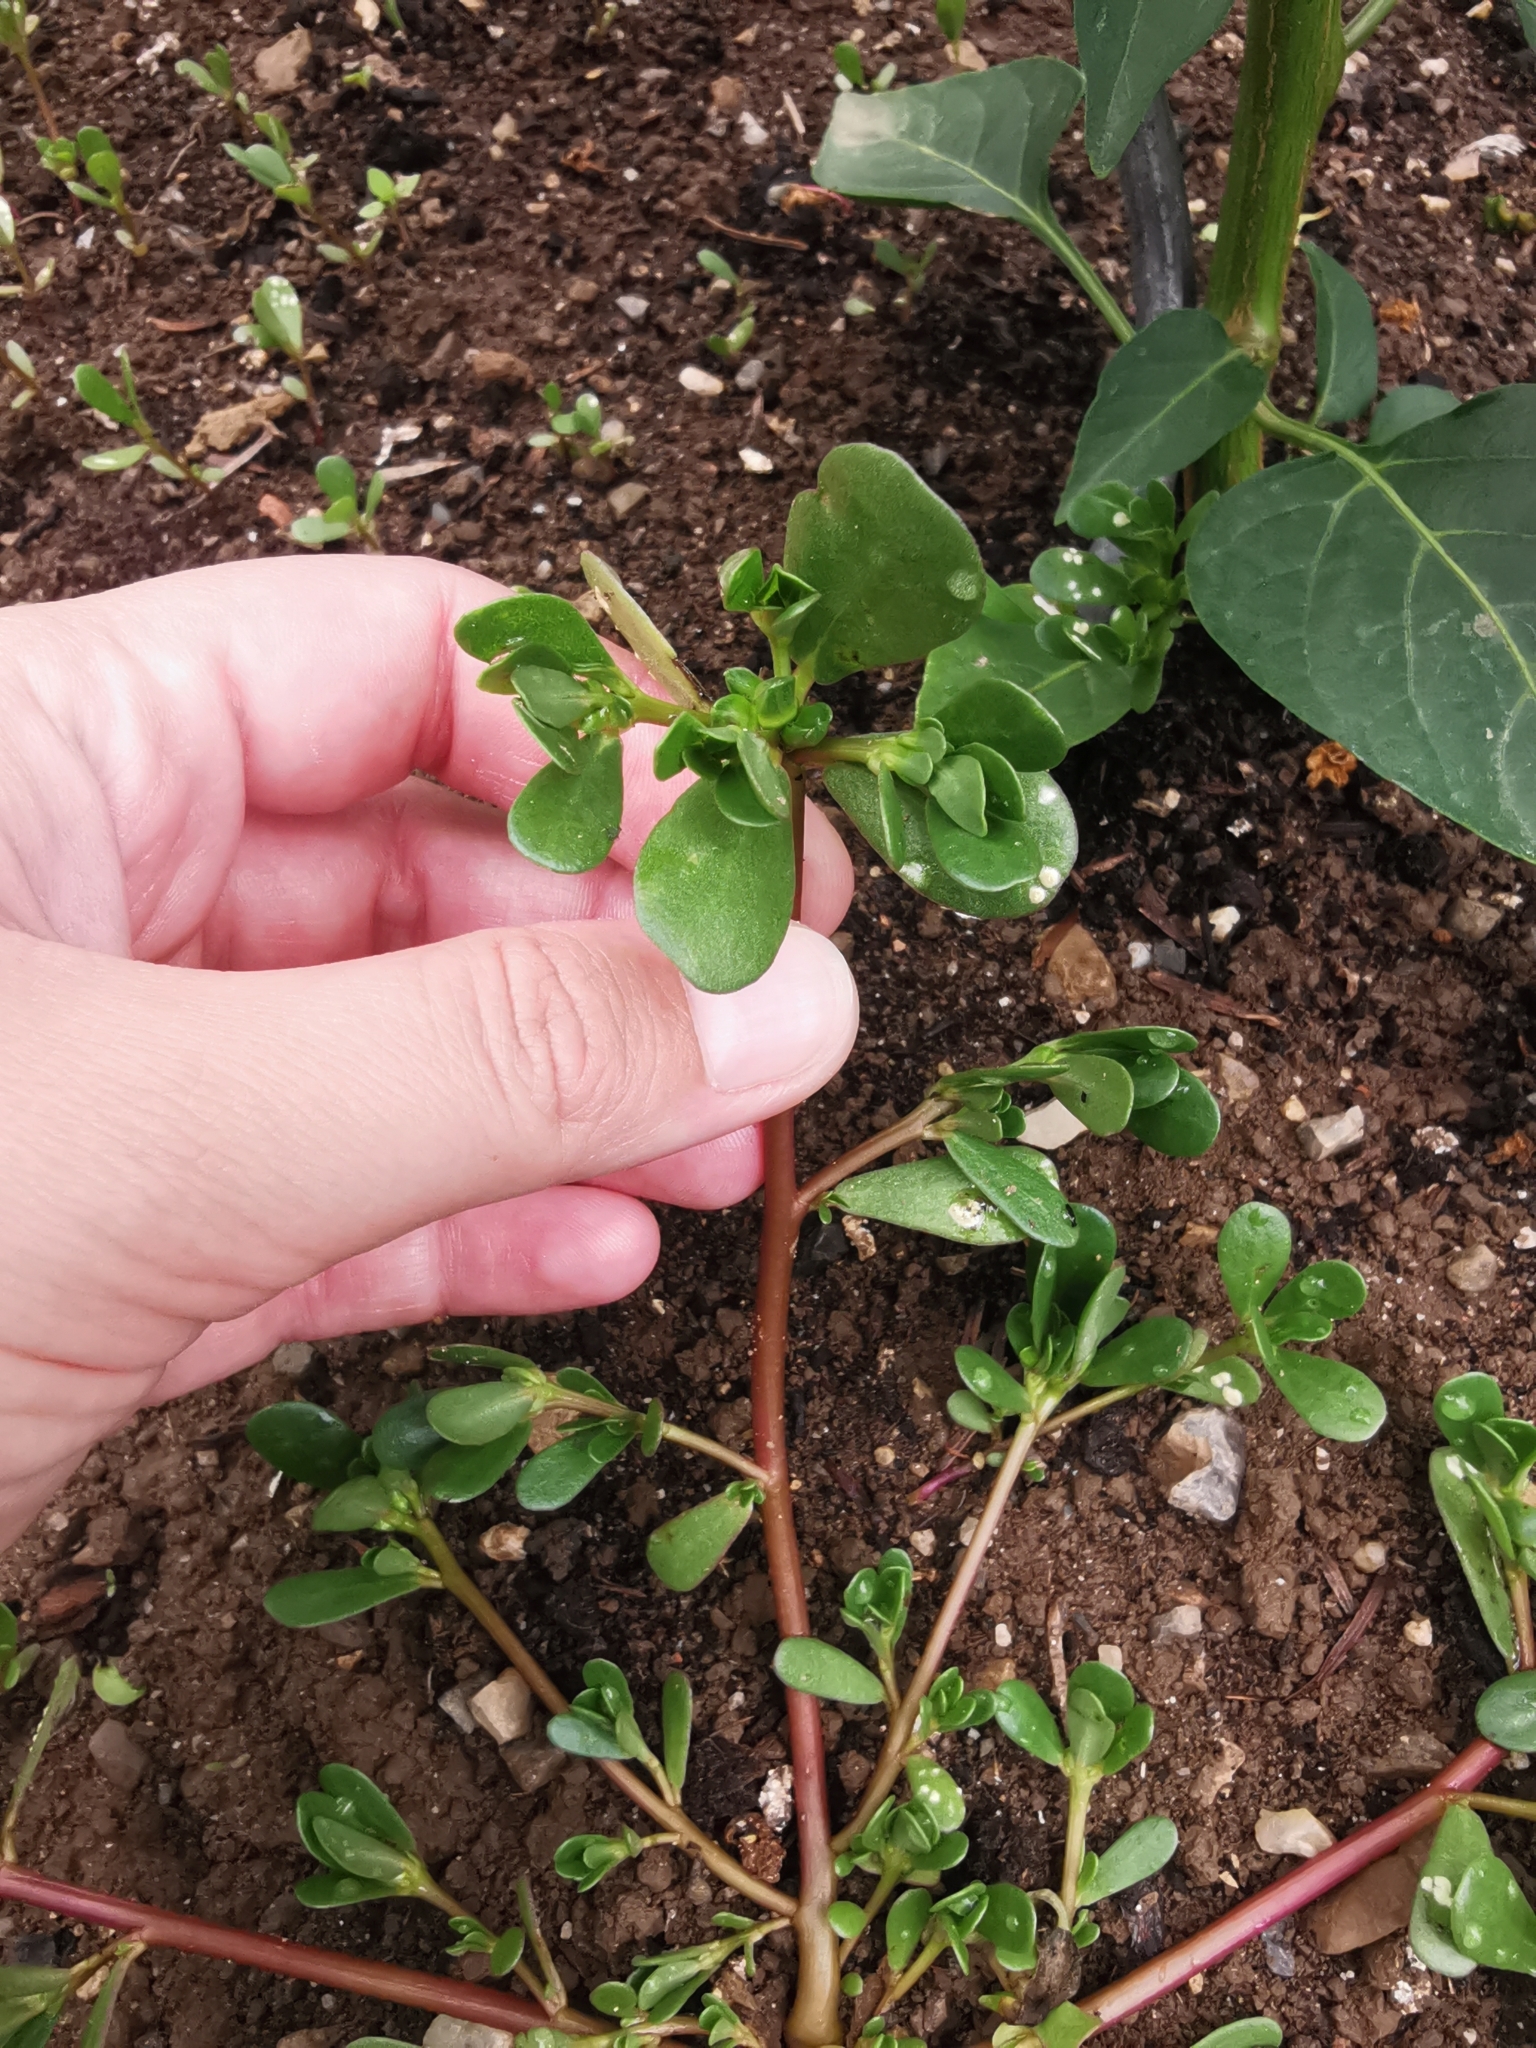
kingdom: Plantae
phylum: Tracheophyta
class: Magnoliopsida
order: Caryophyllales
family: Portulacaceae
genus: Portulaca
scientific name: Portulaca oleracea
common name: Common purslane
